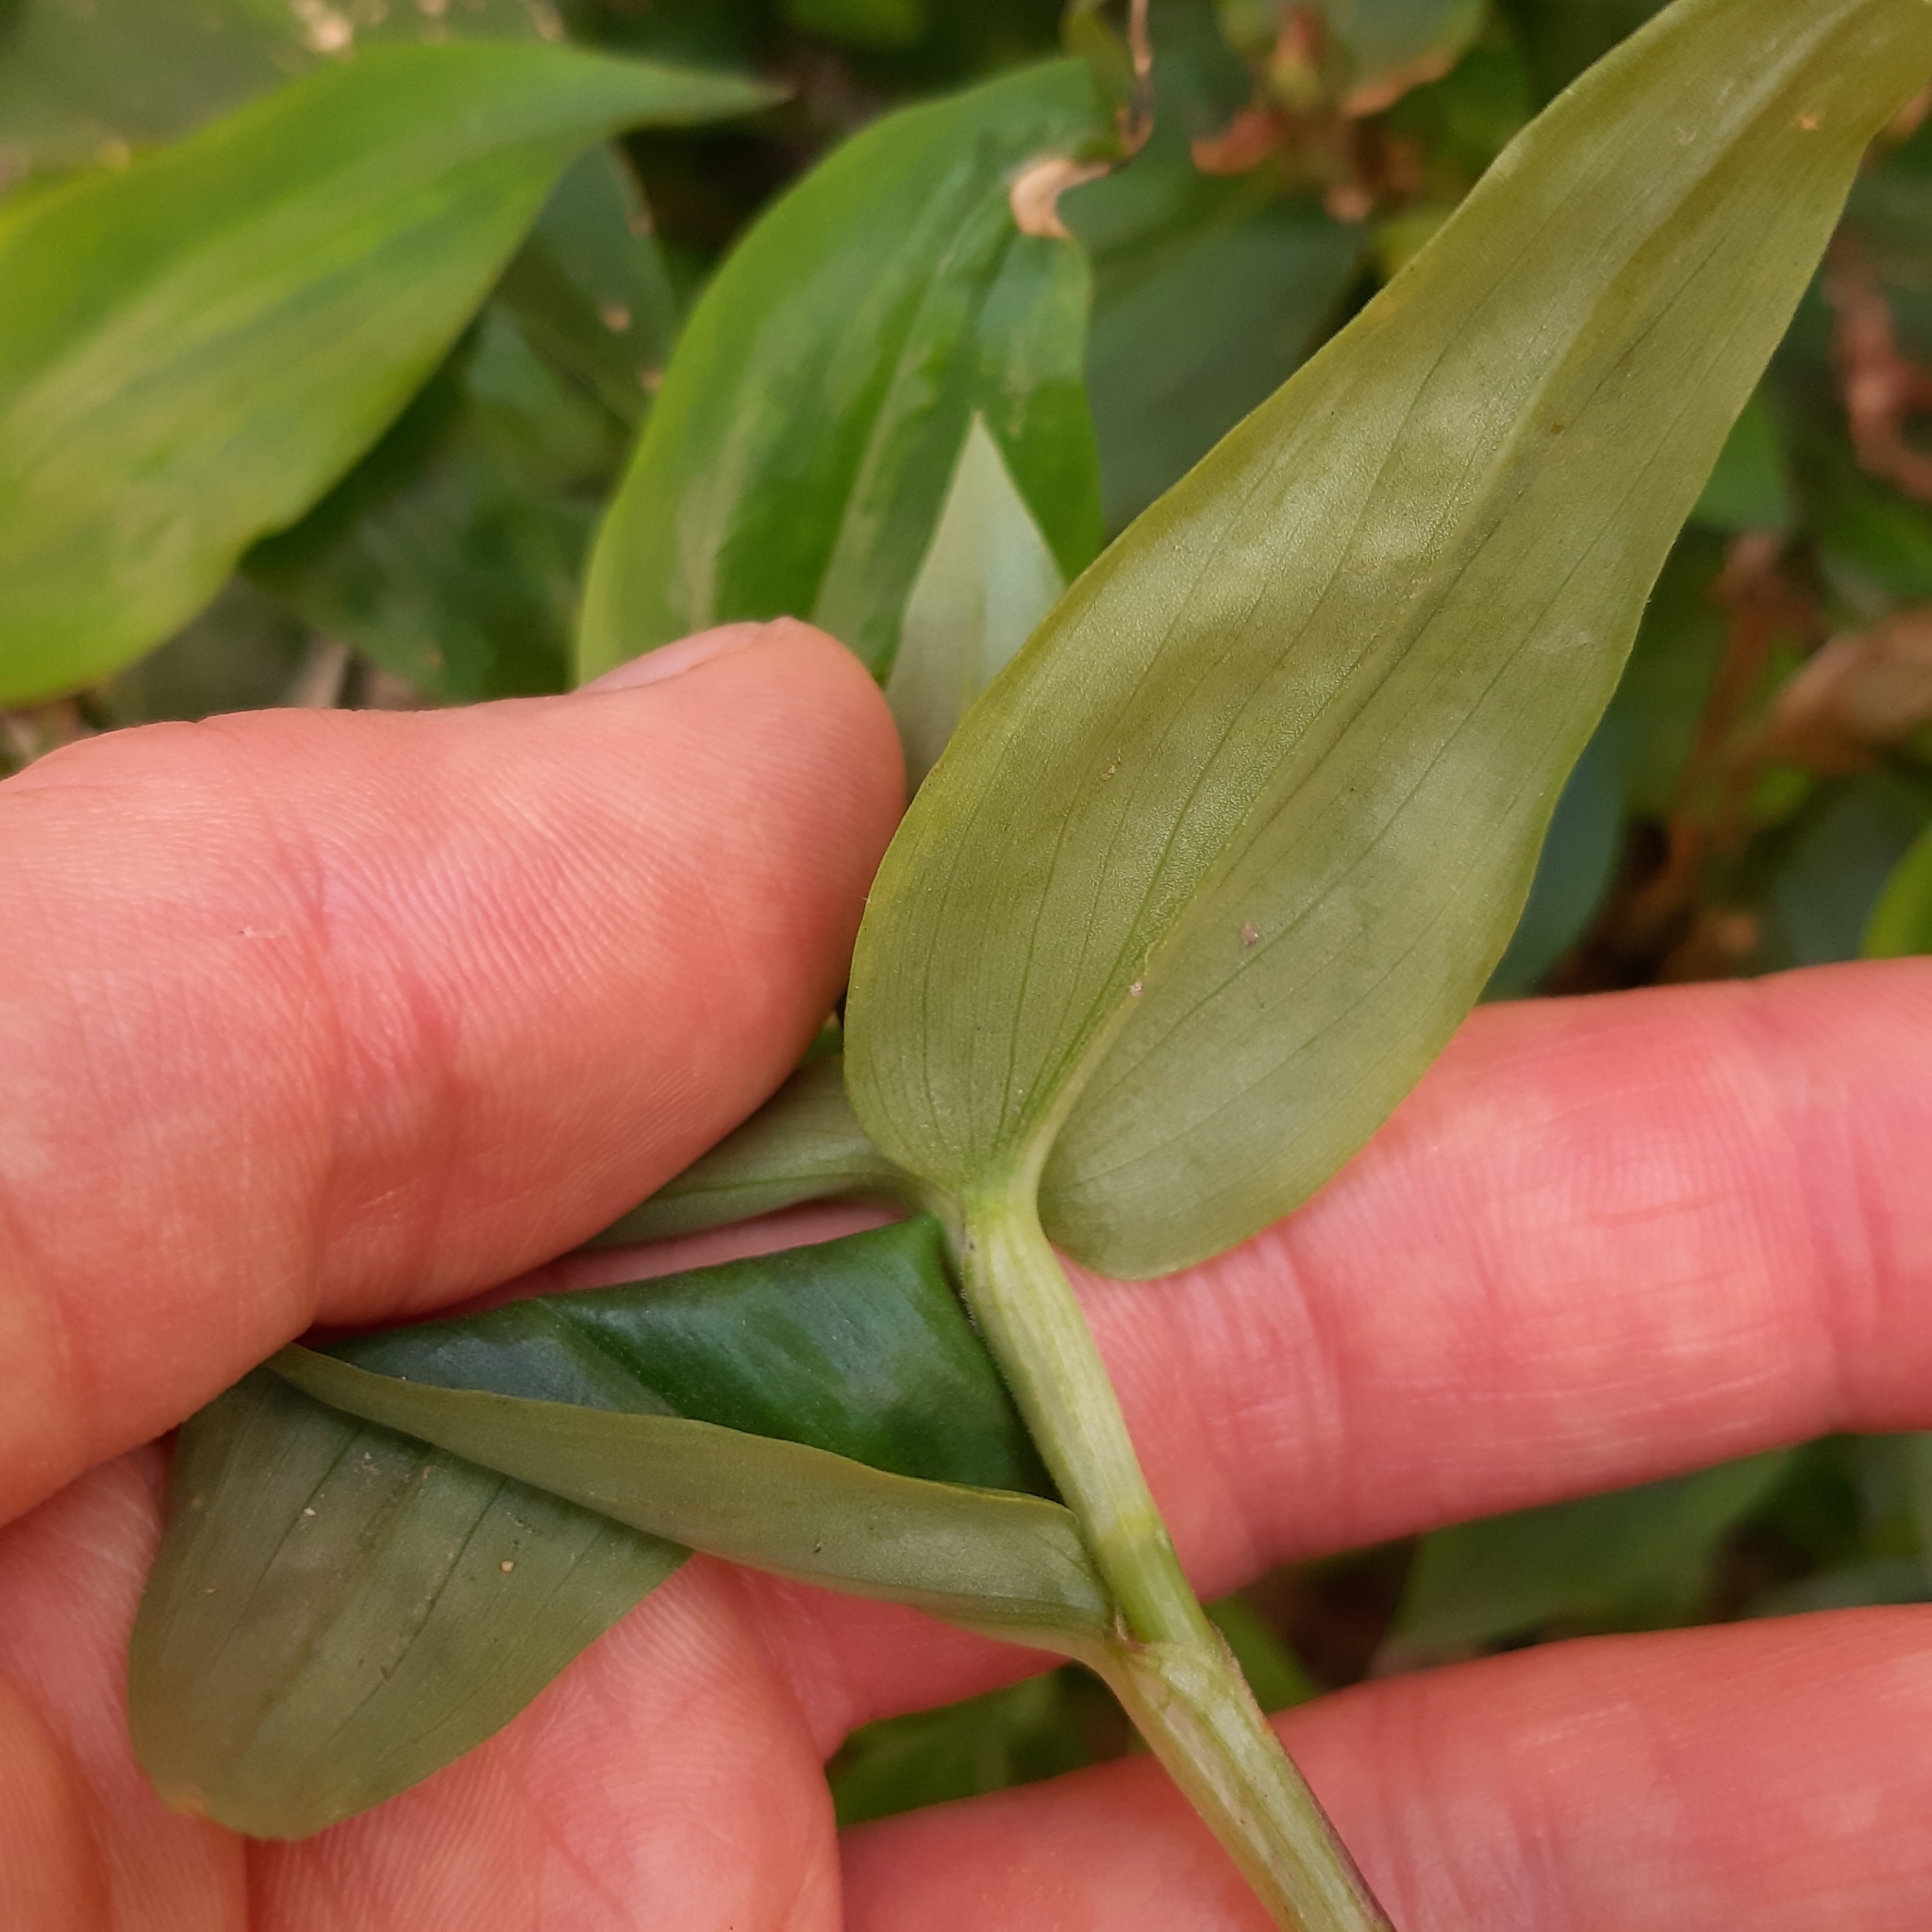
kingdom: Plantae
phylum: Tracheophyta
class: Liliopsida
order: Commelinales
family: Commelinaceae
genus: Commelina
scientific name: Commelina communis
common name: Asiatic dayflower
